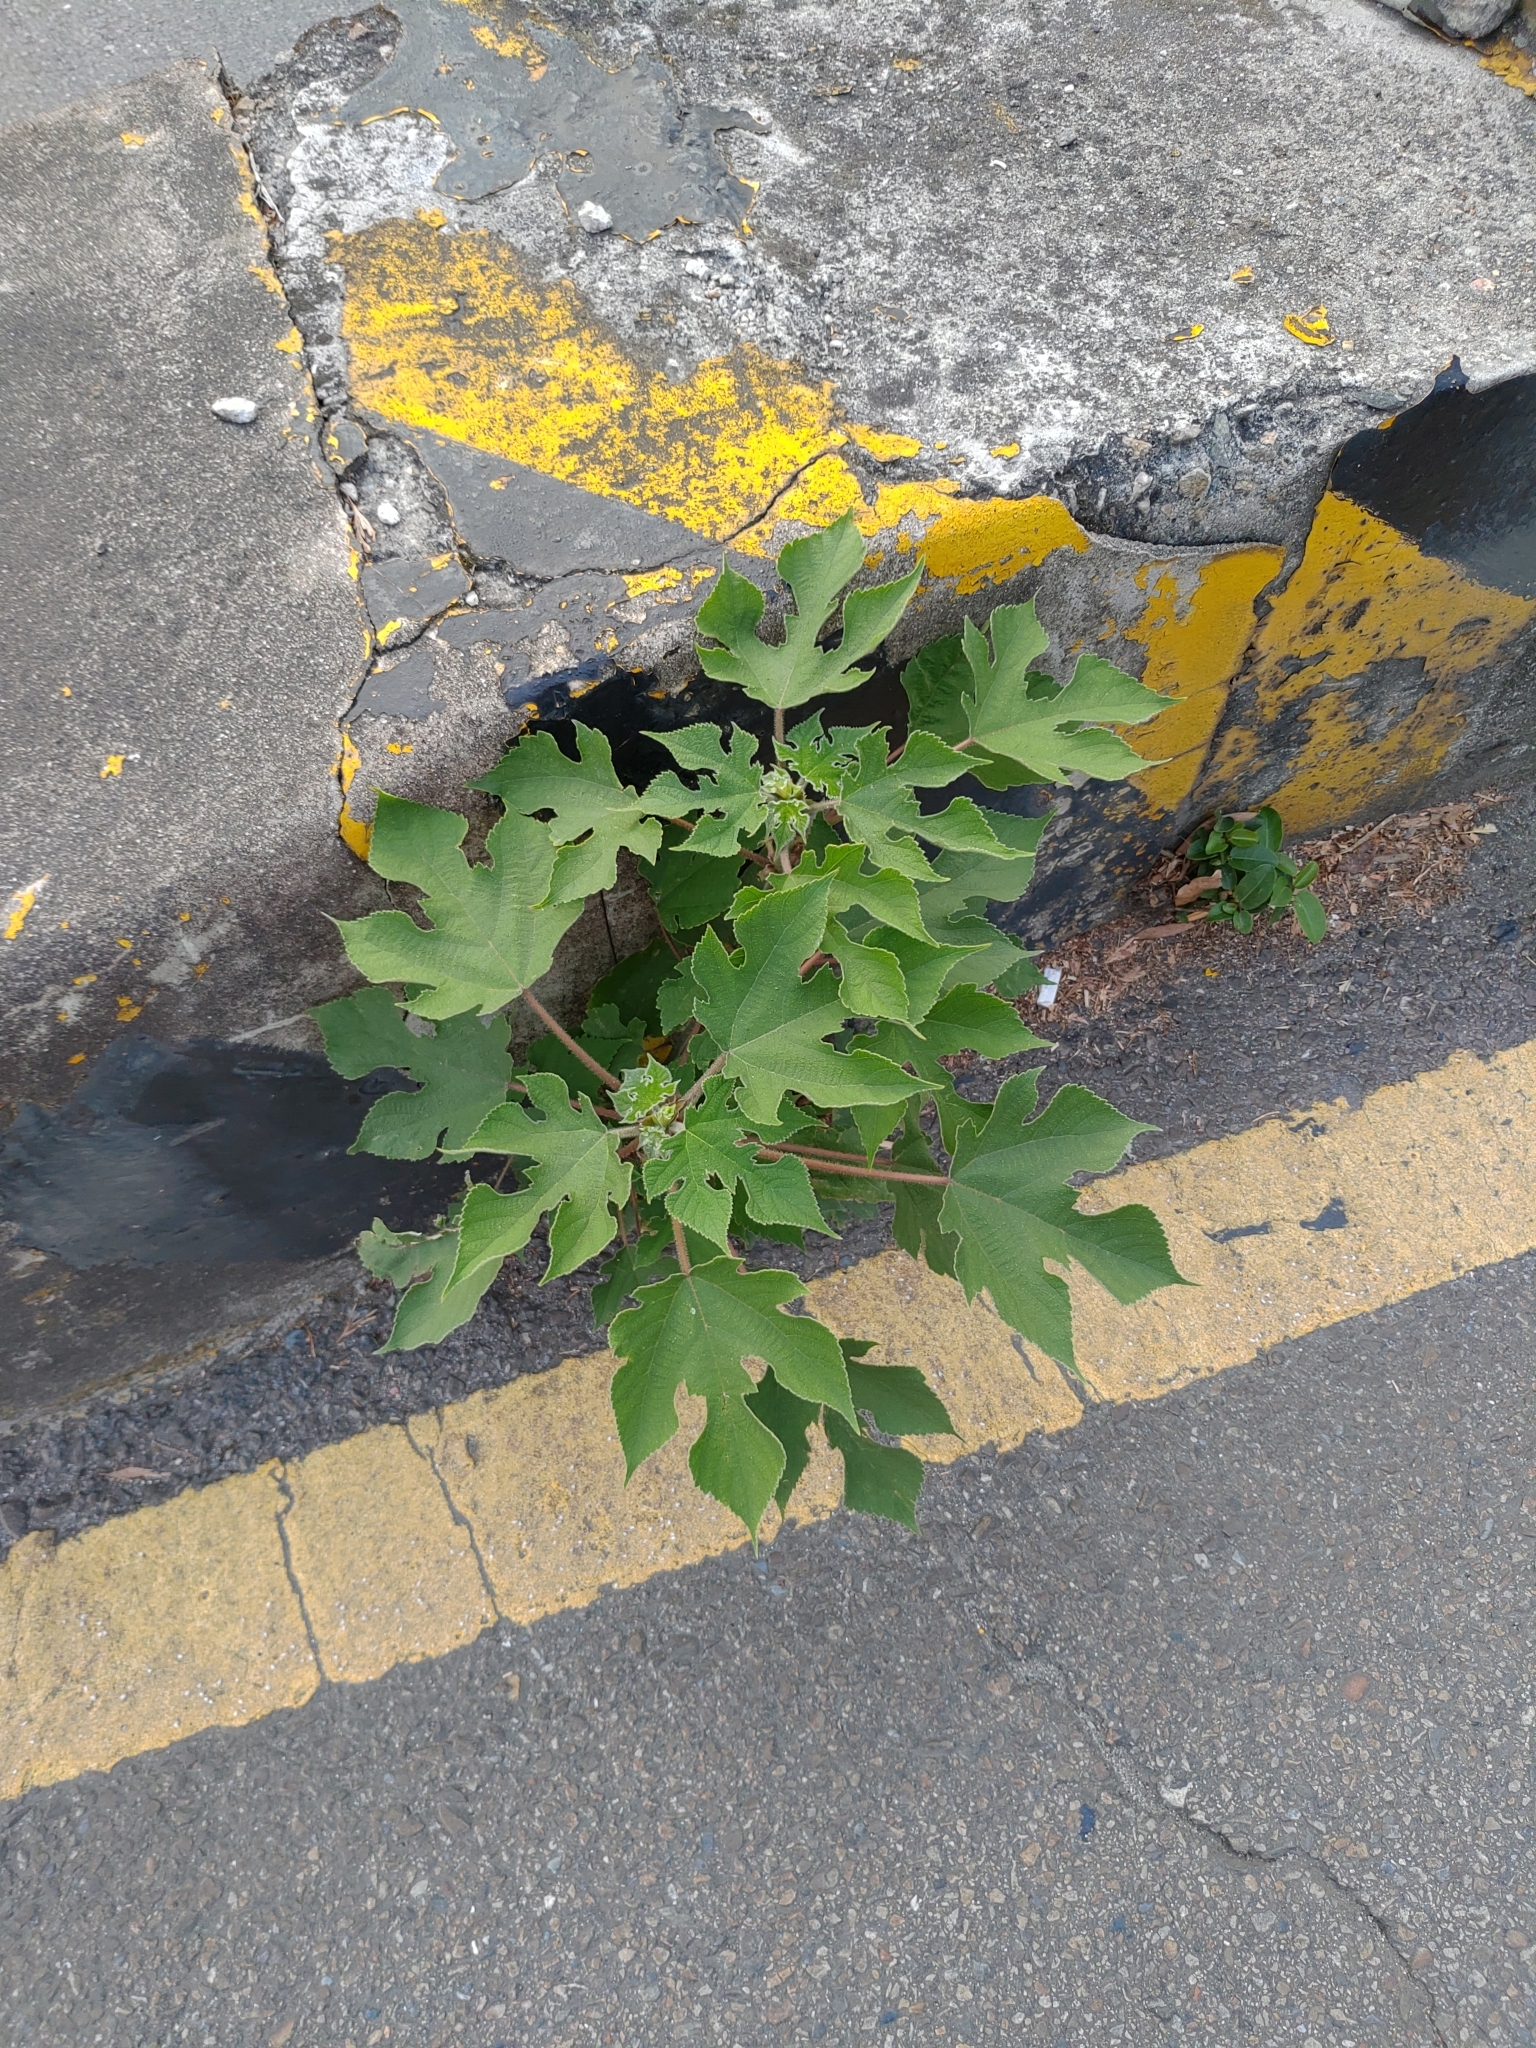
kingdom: Plantae
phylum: Tracheophyta
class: Magnoliopsida
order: Rosales
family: Moraceae
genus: Broussonetia
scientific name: Broussonetia papyrifera
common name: Paper mulberry
